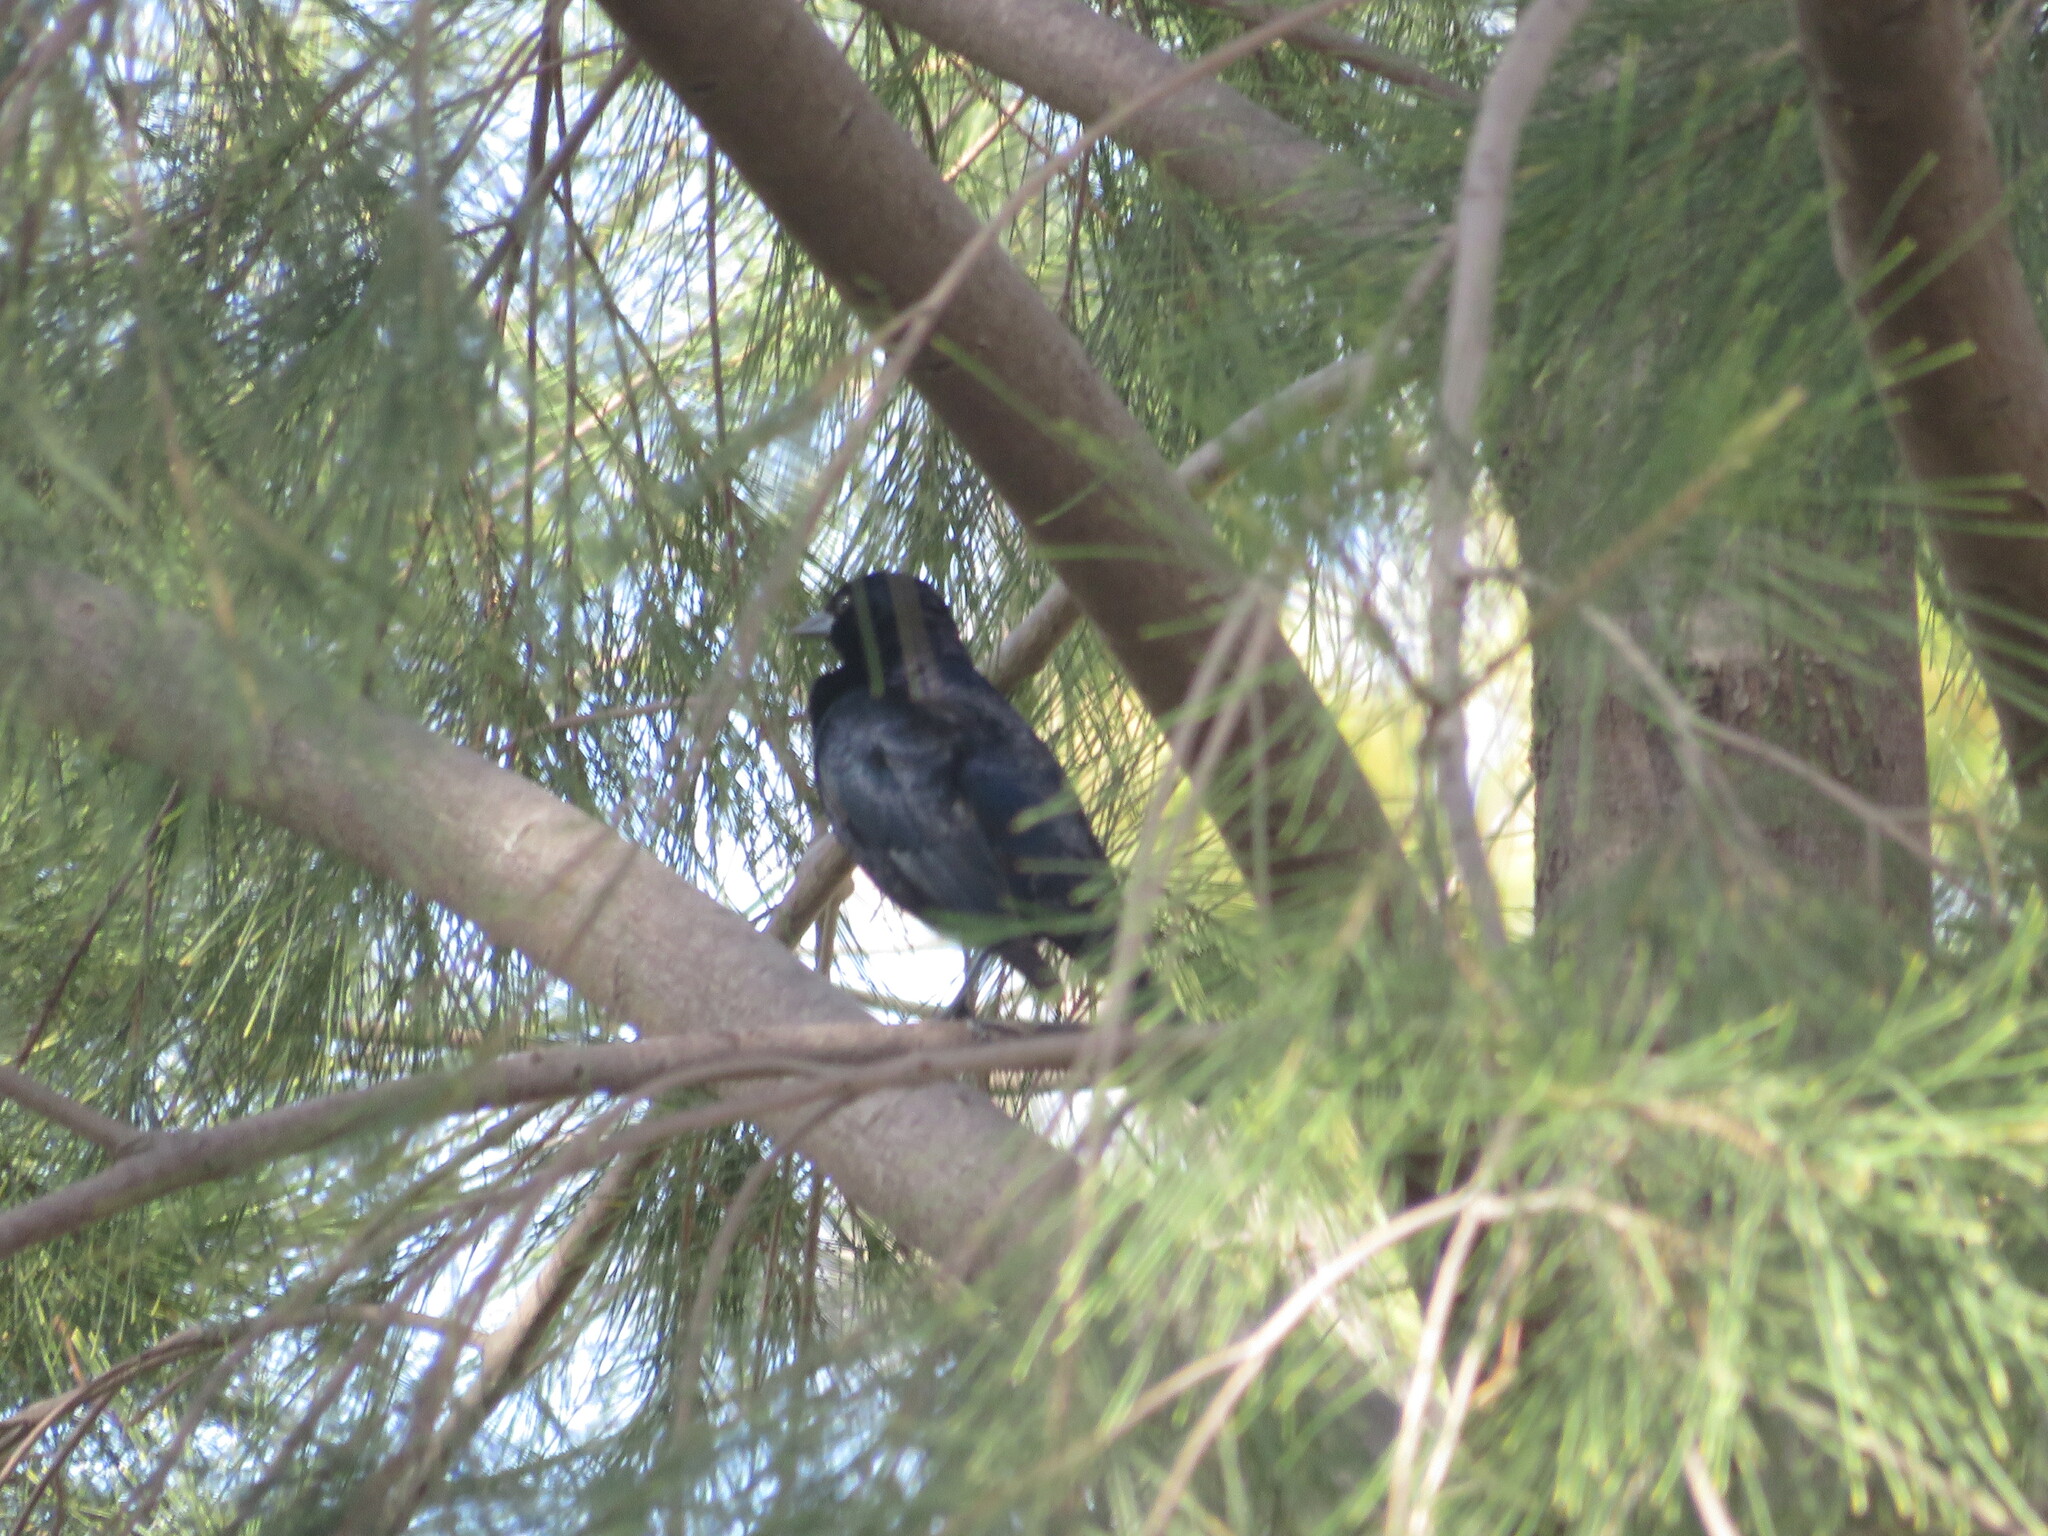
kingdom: Animalia
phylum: Chordata
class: Aves
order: Passeriformes
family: Icteridae
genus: Molothrus
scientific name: Molothrus bonariensis
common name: Shiny cowbird
